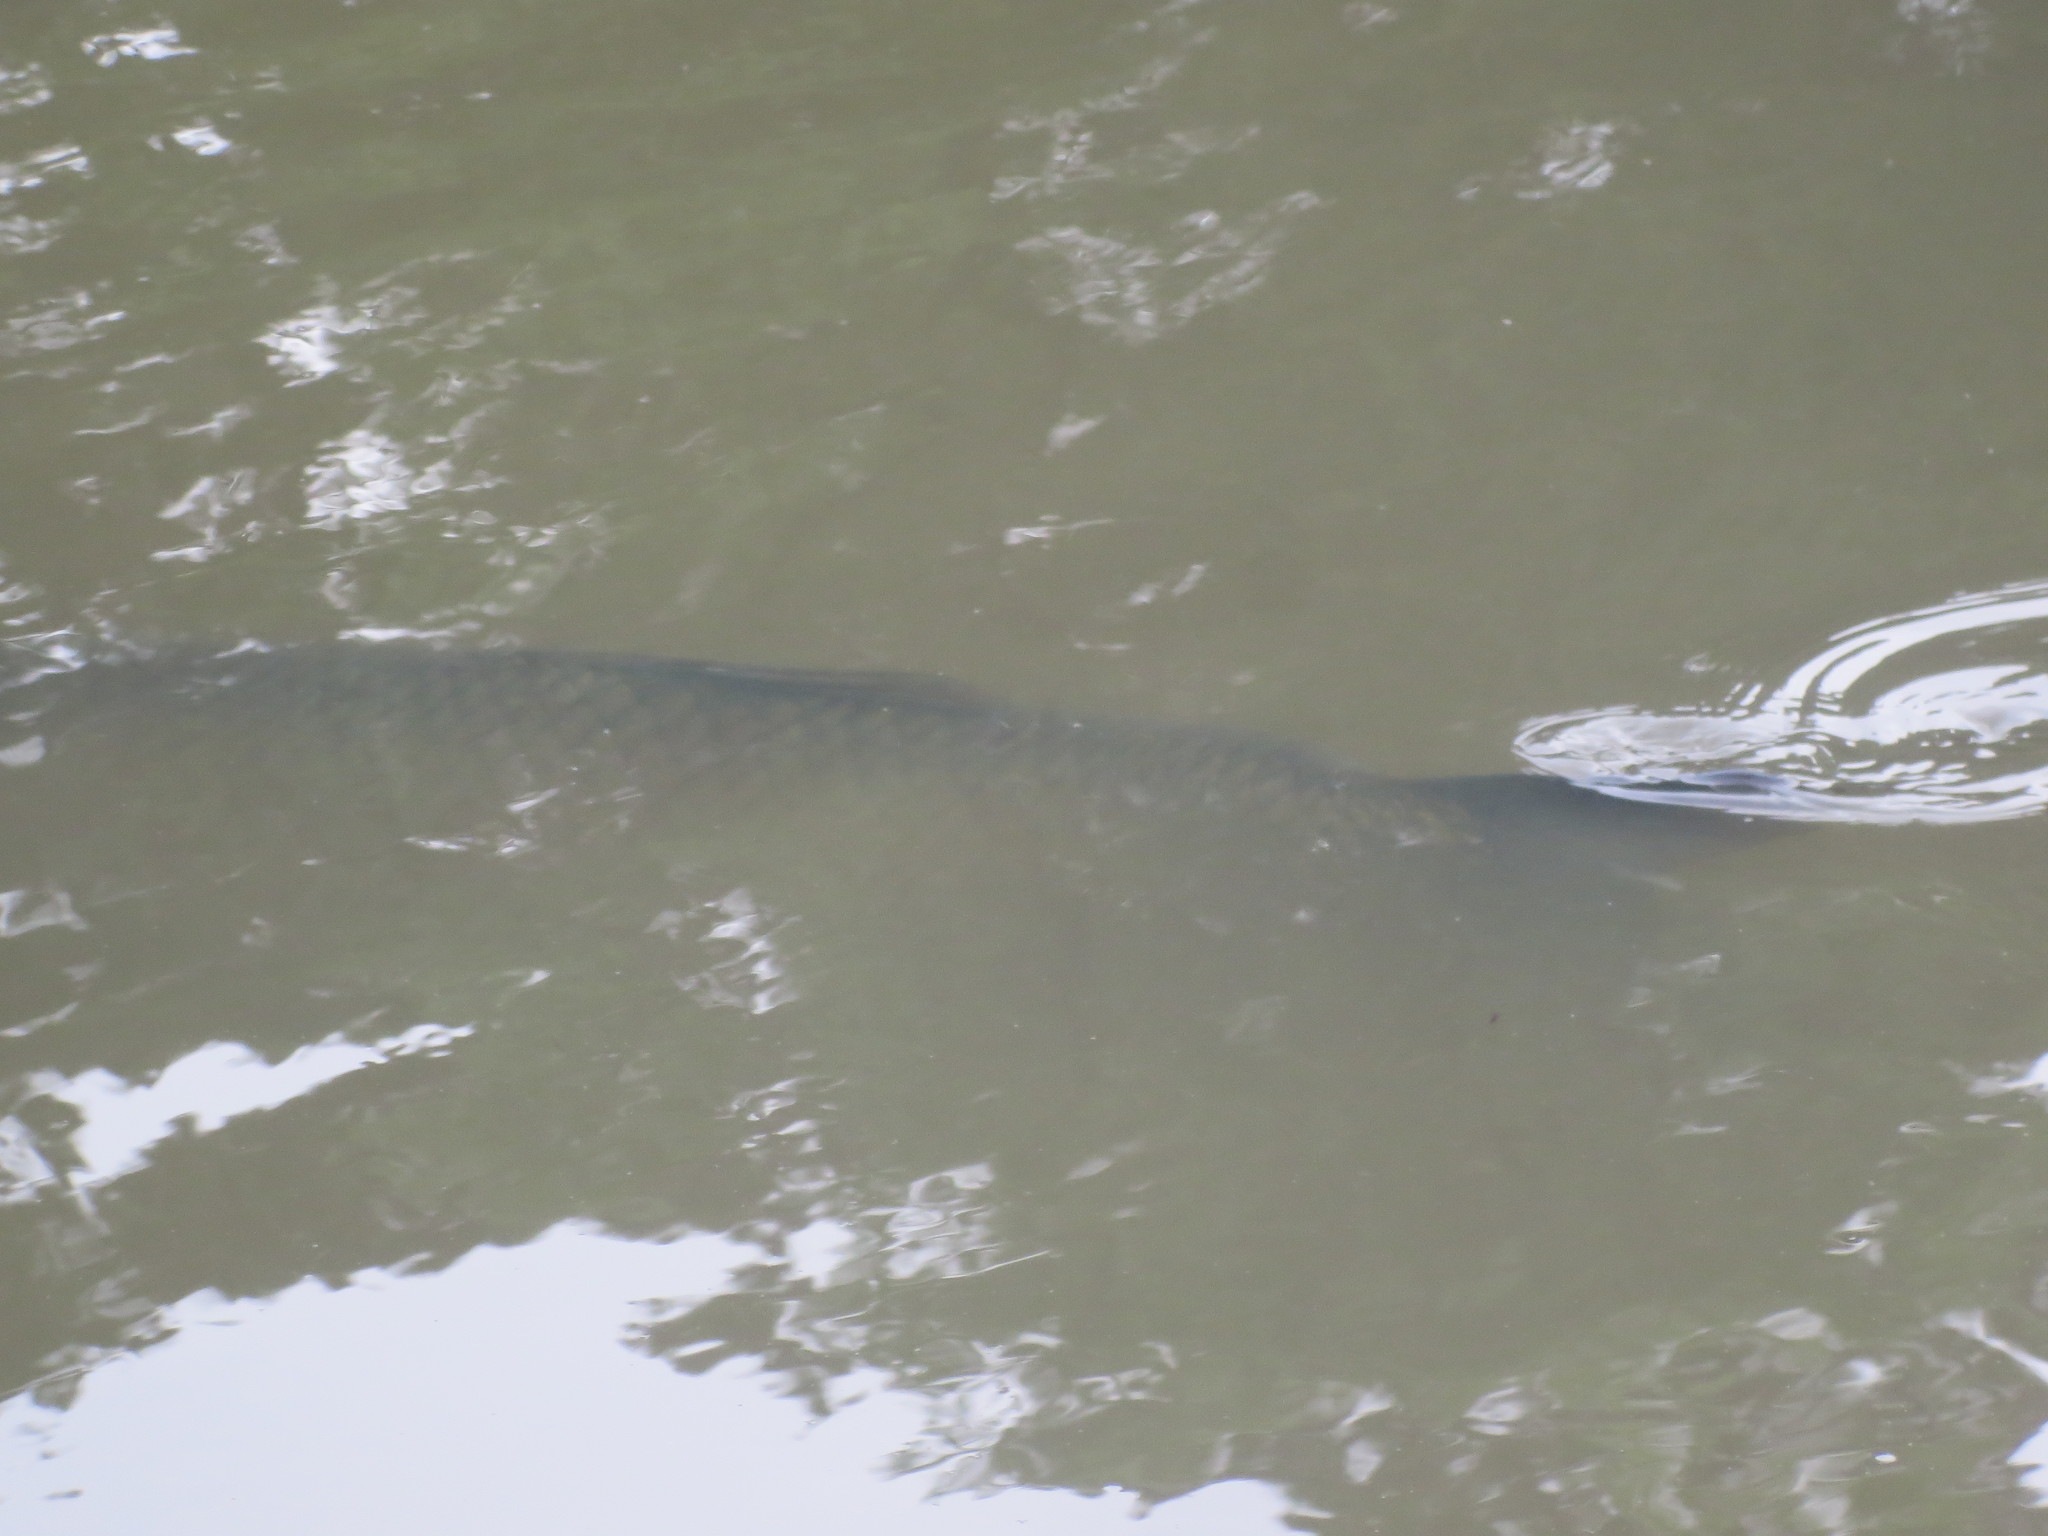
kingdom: Animalia
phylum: Chordata
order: Cypriniformes
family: Cyprinidae
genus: Ctenopharyngodon
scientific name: Ctenopharyngodon idella
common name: Grass carp
